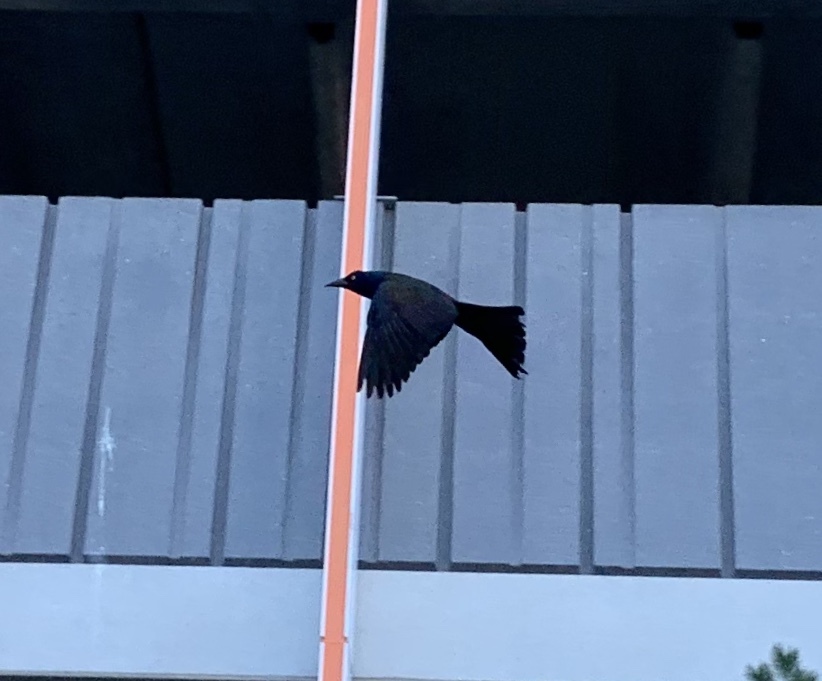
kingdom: Animalia
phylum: Chordata
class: Aves
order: Passeriformes
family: Icteridae
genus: Quiscalus
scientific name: Quiscalus quiscula
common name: Common grackle
